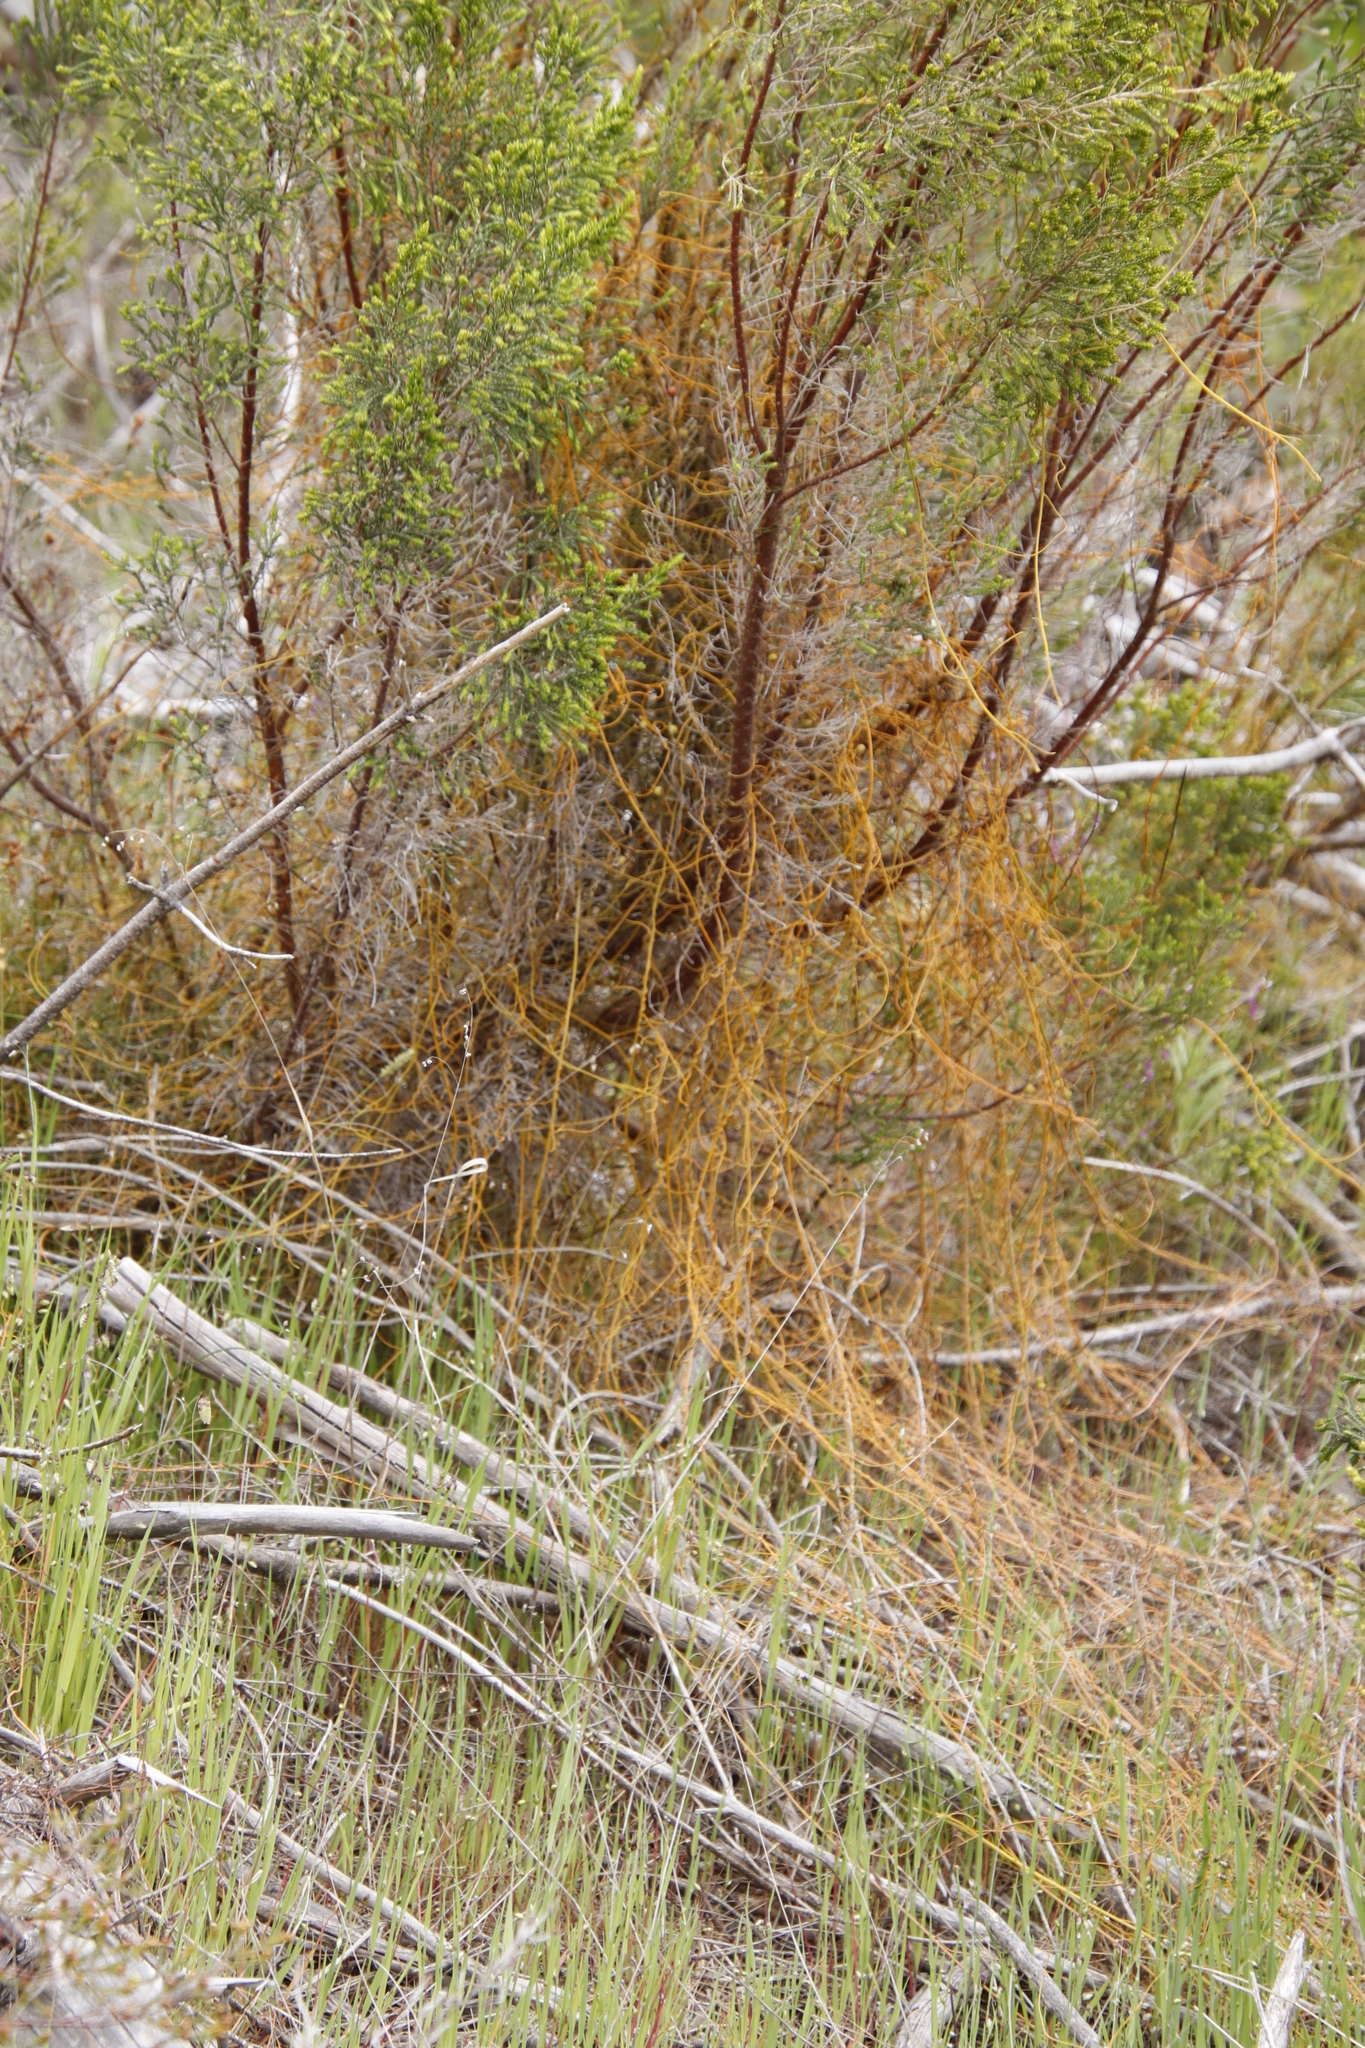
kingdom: Plantae
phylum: Tracheophyta
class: Magnoliopsida
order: Laurales
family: Lauraceae
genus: Cassytha
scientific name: Cassytha ciliolata
